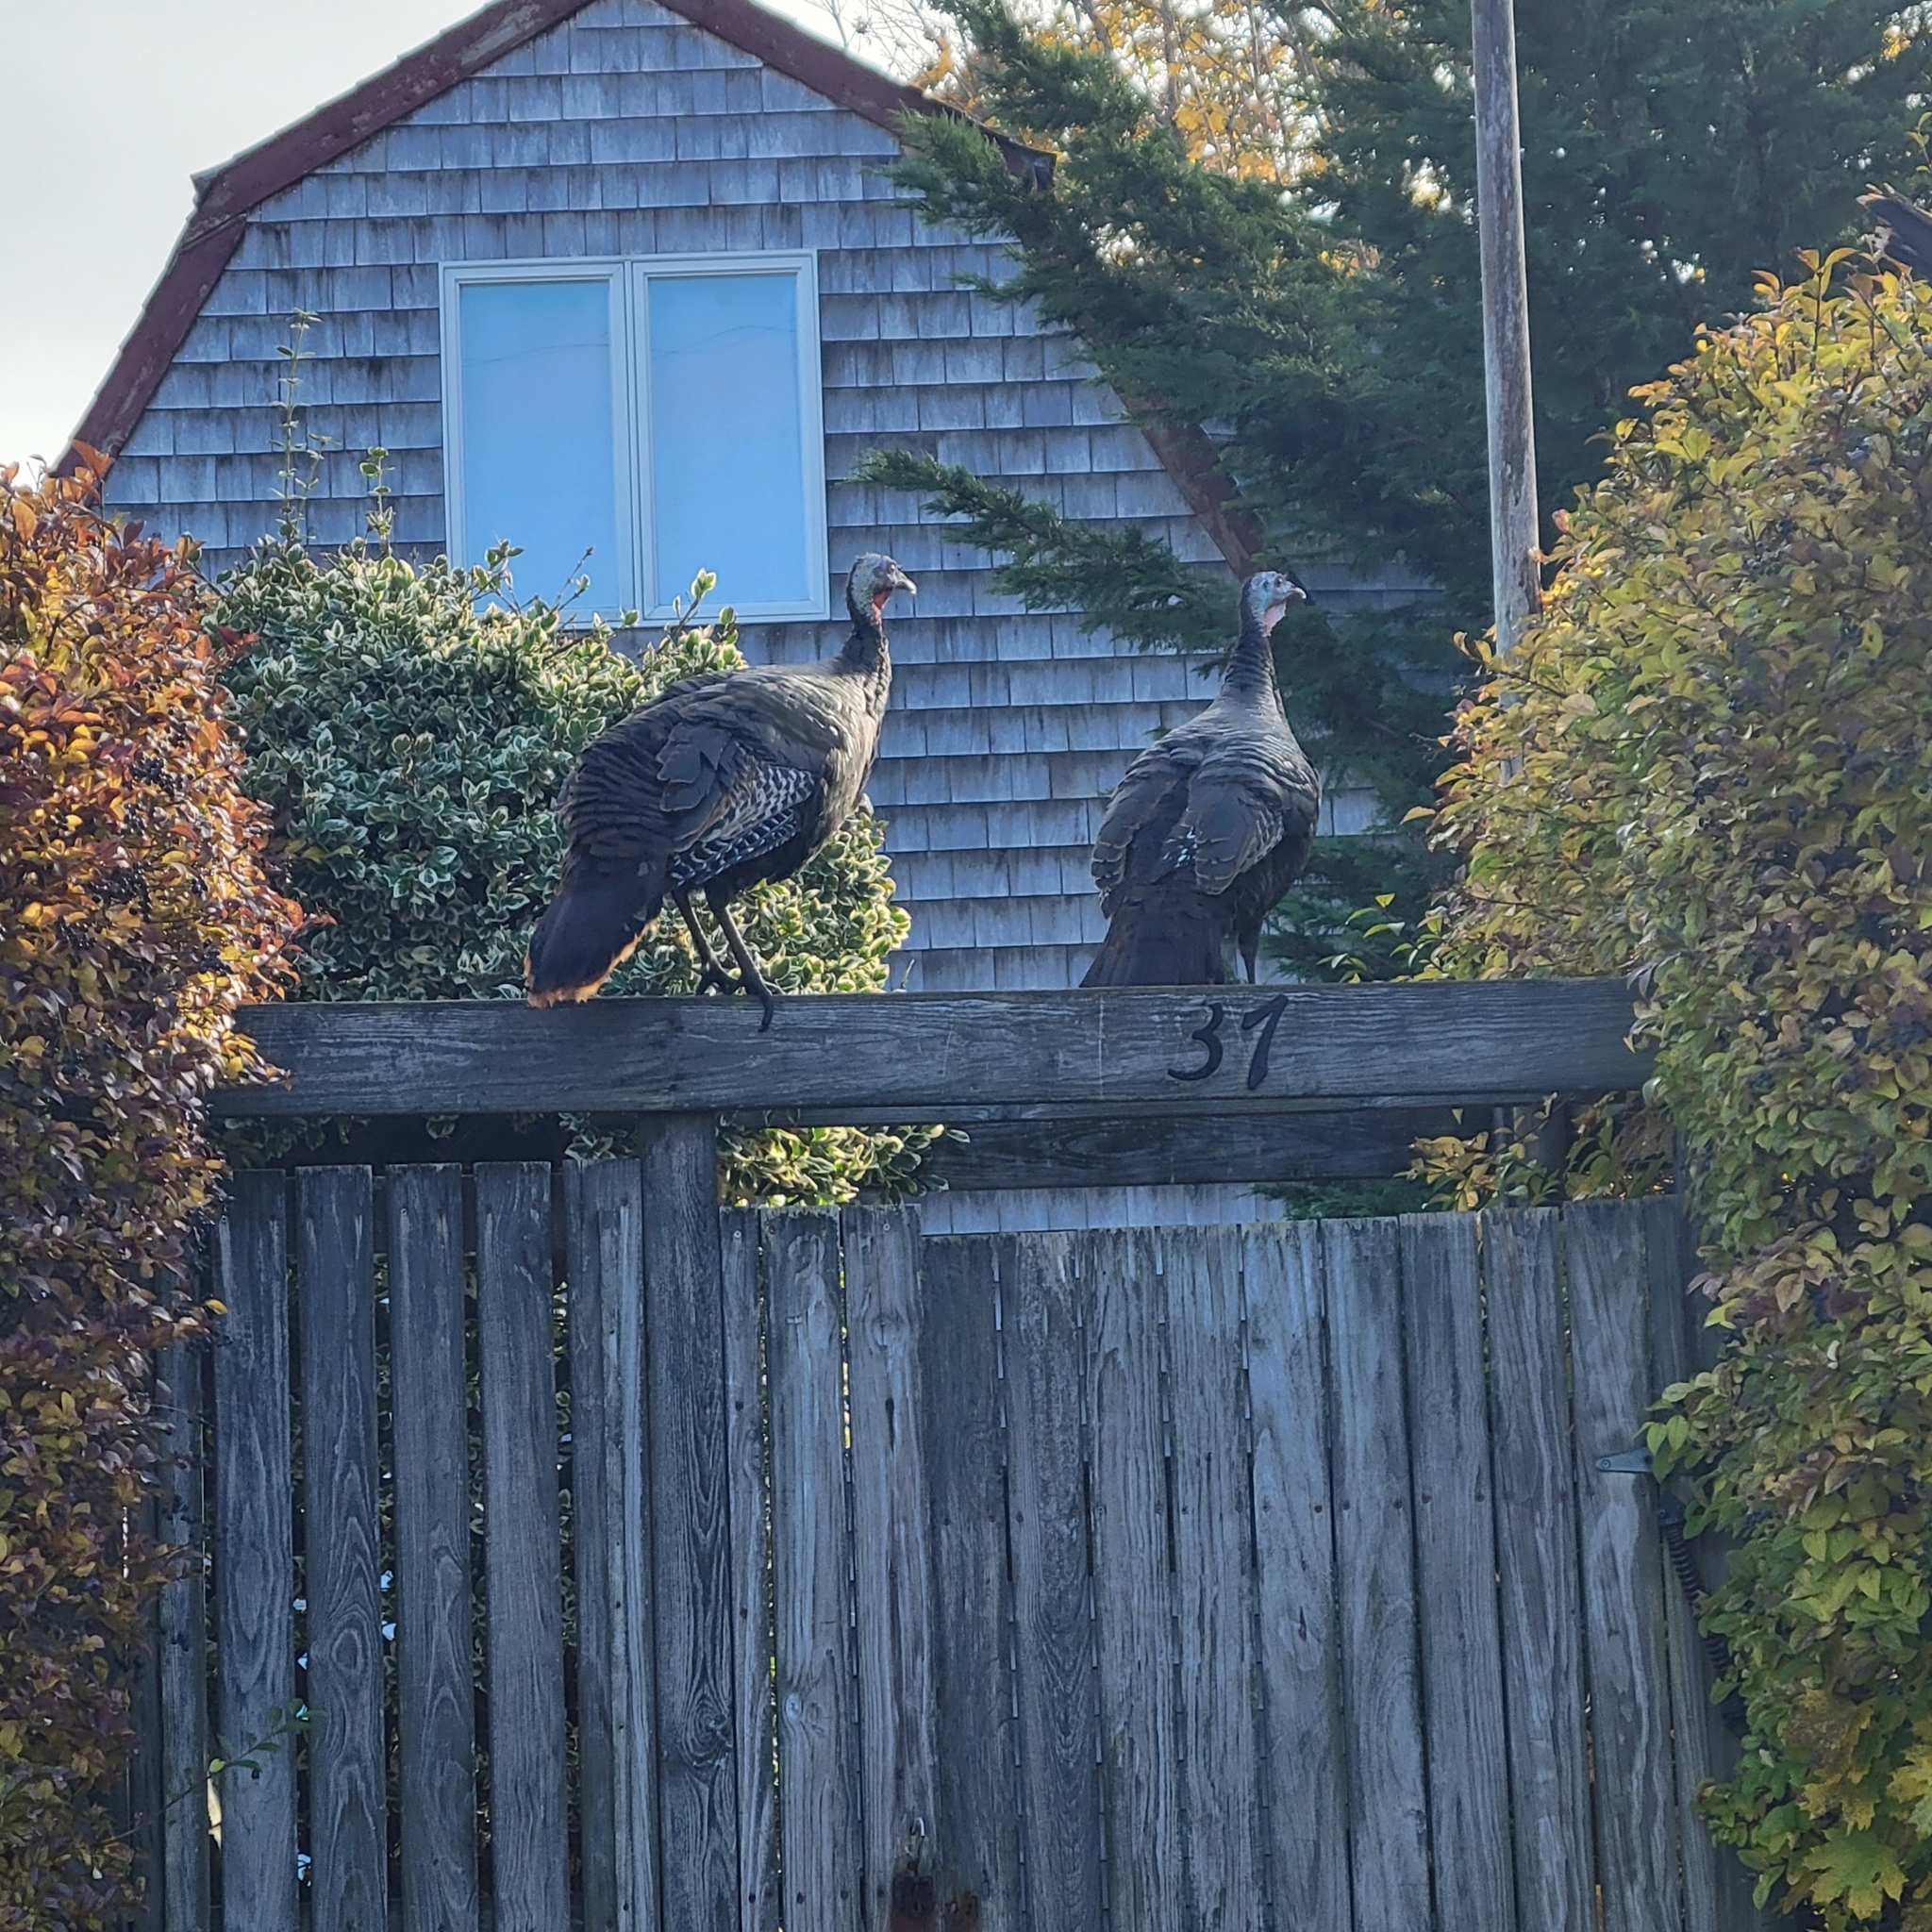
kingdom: Animalia
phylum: Chordata
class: Aves
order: Galliformes
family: Phasianidae
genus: Meleagris
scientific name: Meleagris gallopavo
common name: Wild turkey
